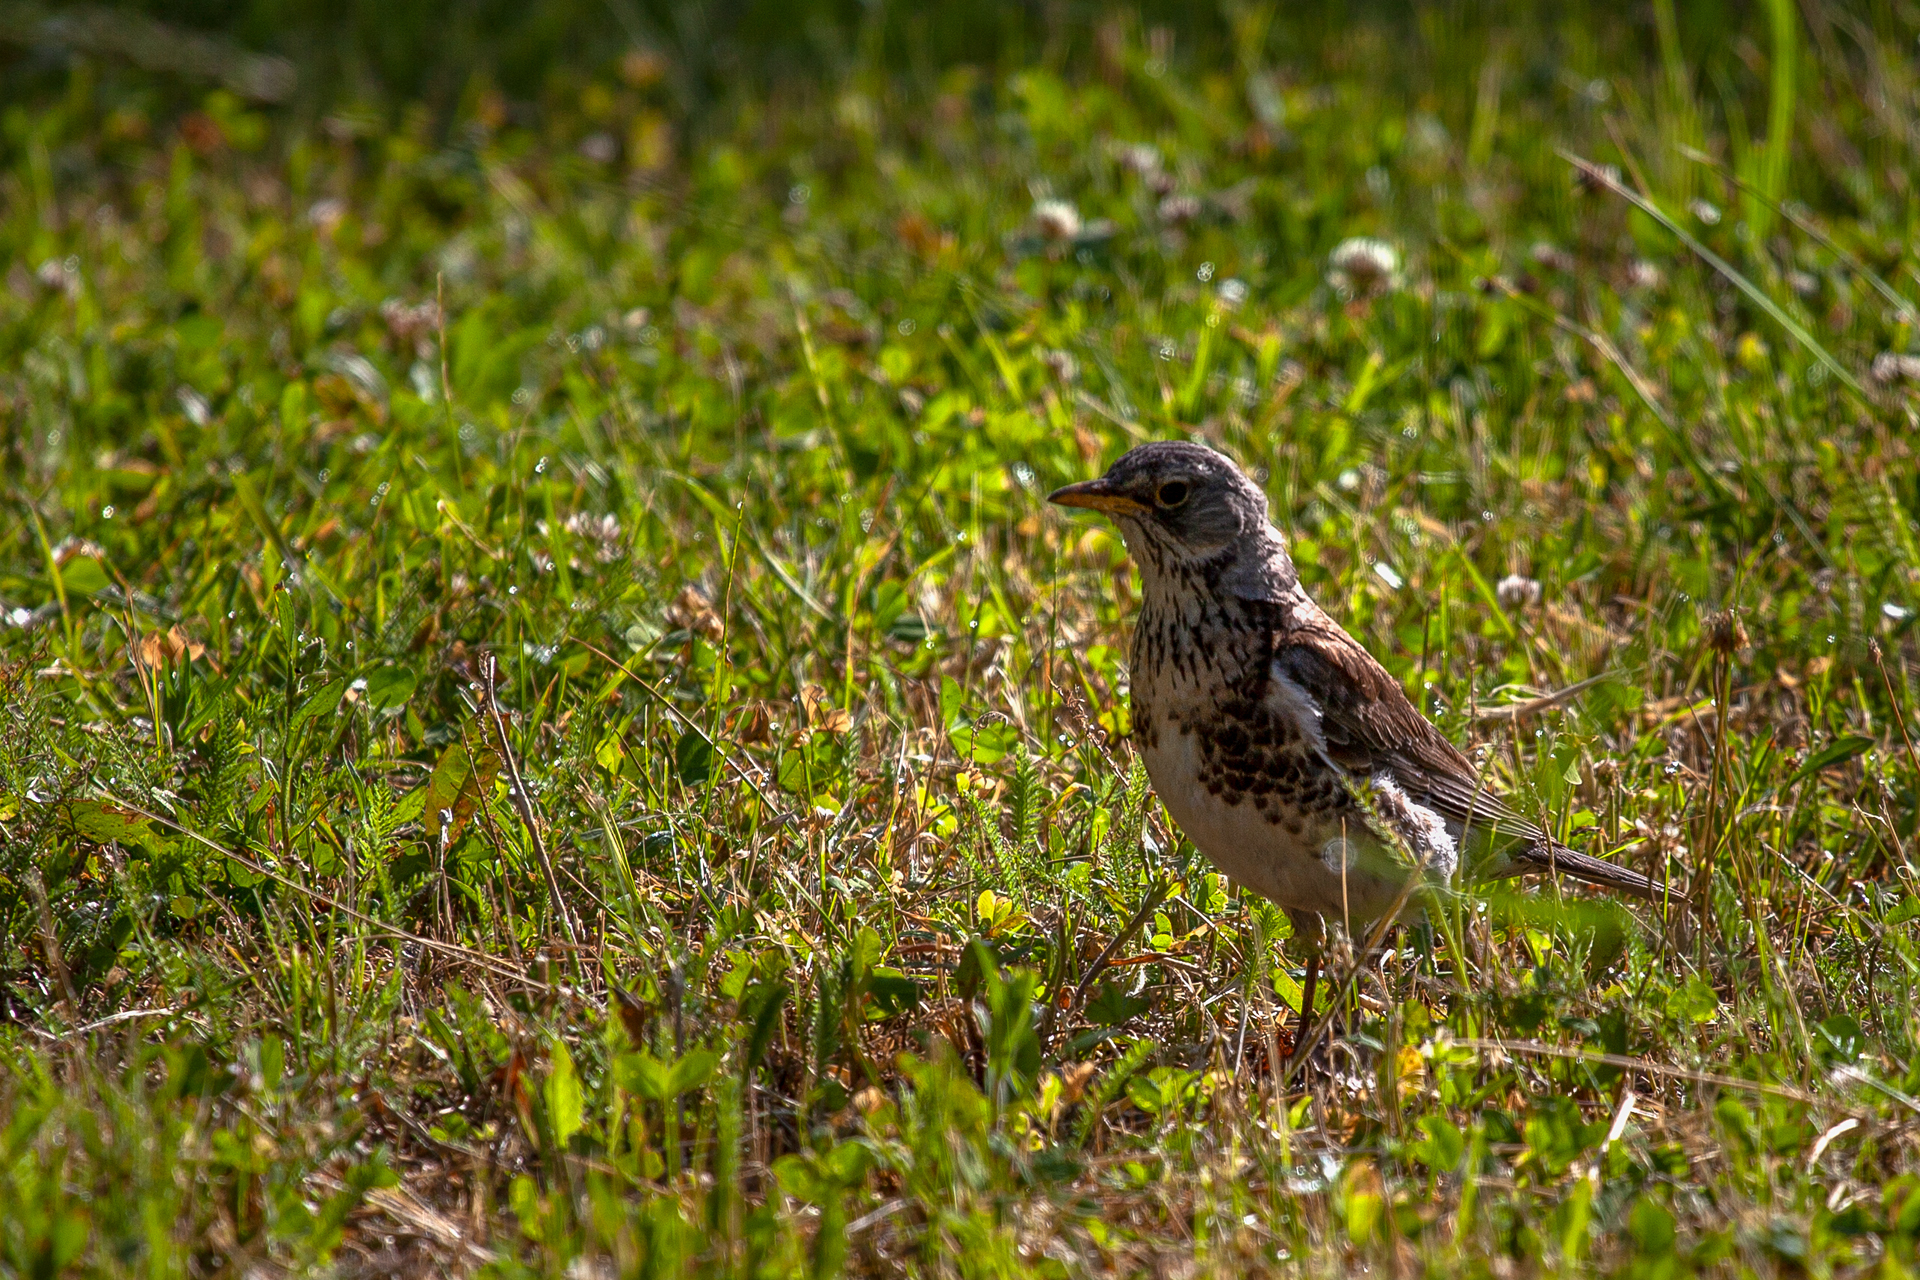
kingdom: Animalia
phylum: Chordata
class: Aves
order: Passeriformes
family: Turdidae
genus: Turdus
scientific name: Turdus pilaris
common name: Fieldfare
